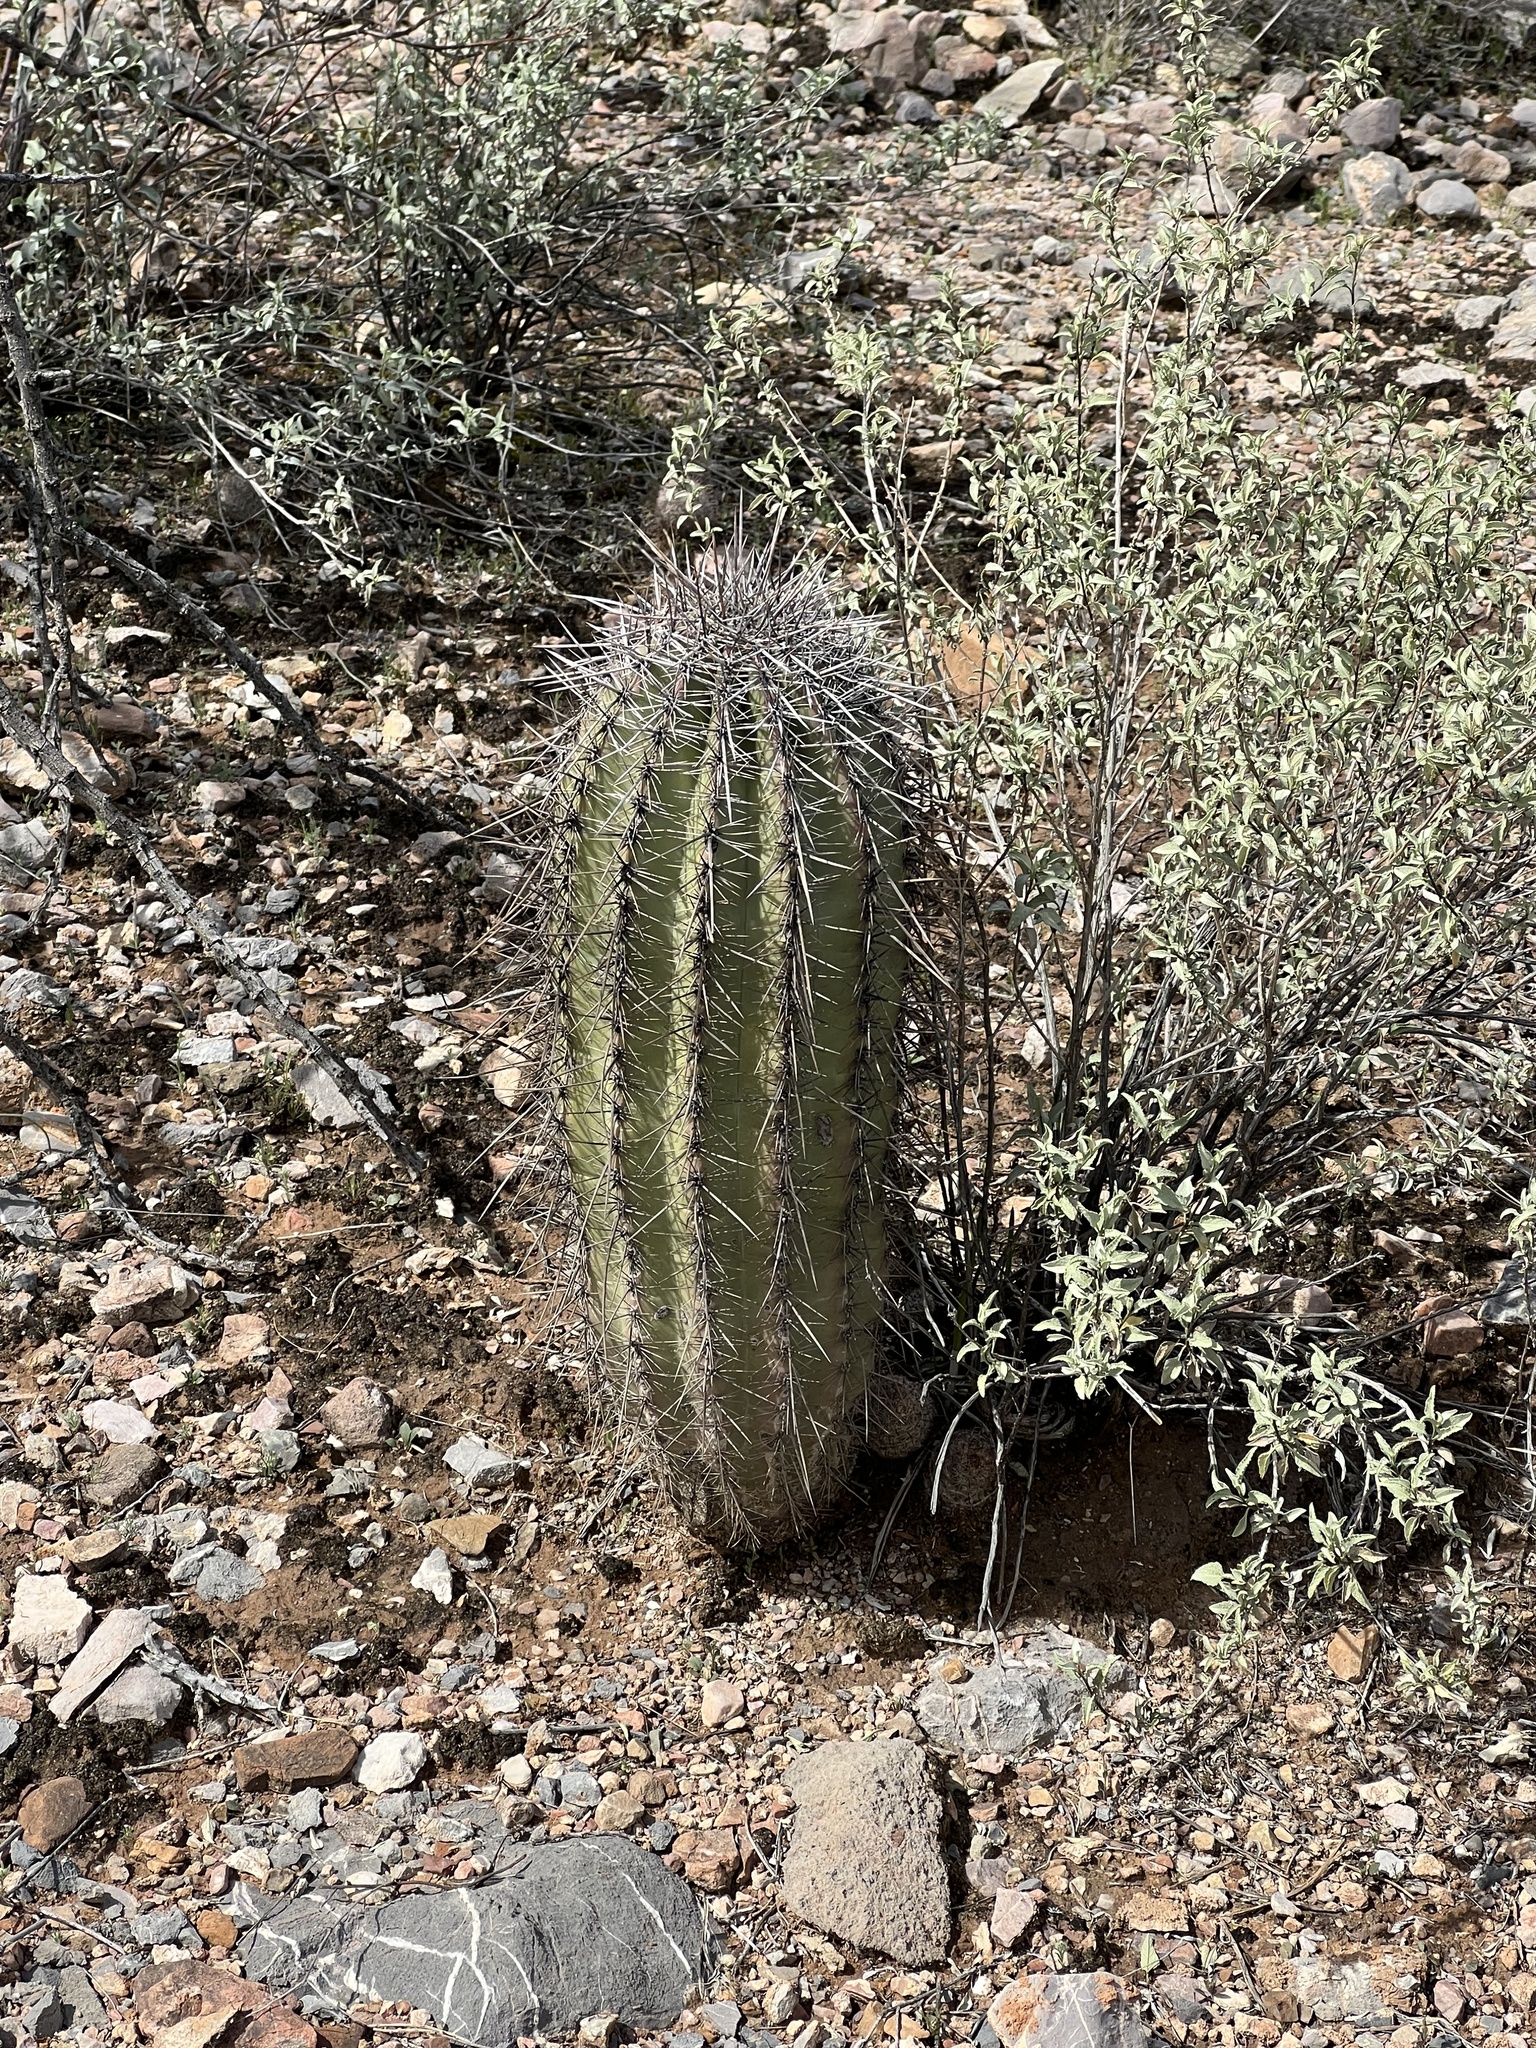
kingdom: Plantae
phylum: Tracheophyta
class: Magnoliopsida
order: Caryophyllales
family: Cactaceae
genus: Carnegiea
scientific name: Carnegiea gigantea
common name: Saguaro
